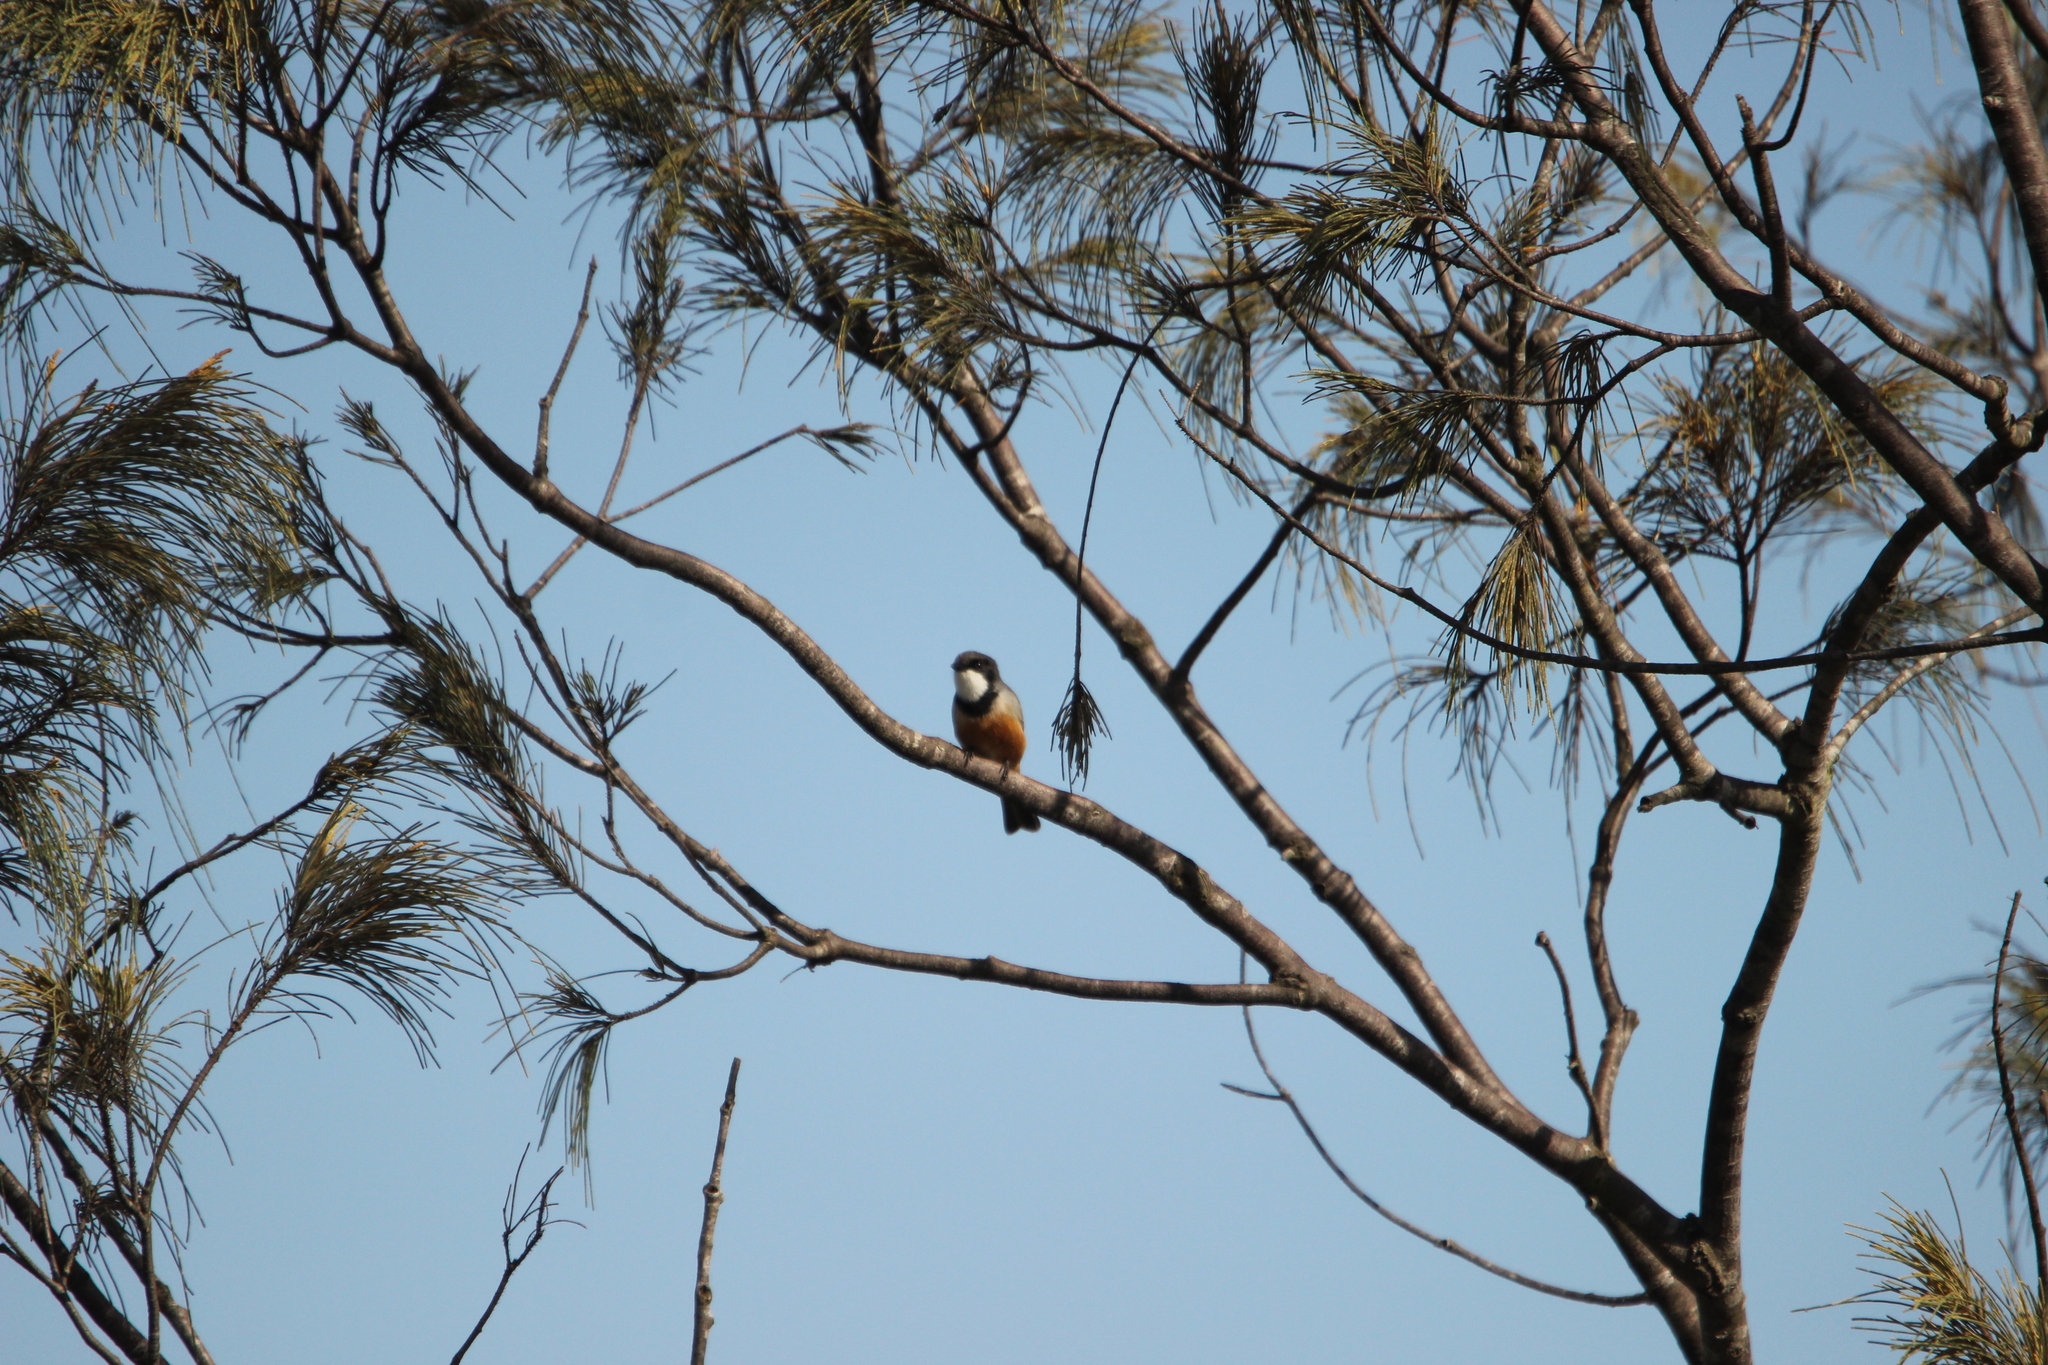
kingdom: Animalia
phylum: Chordata
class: Aves
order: Passeriformes
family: Pachycephalidae
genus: Pachycephala
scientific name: Pachycephala rufiventris
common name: Rufous whistler
